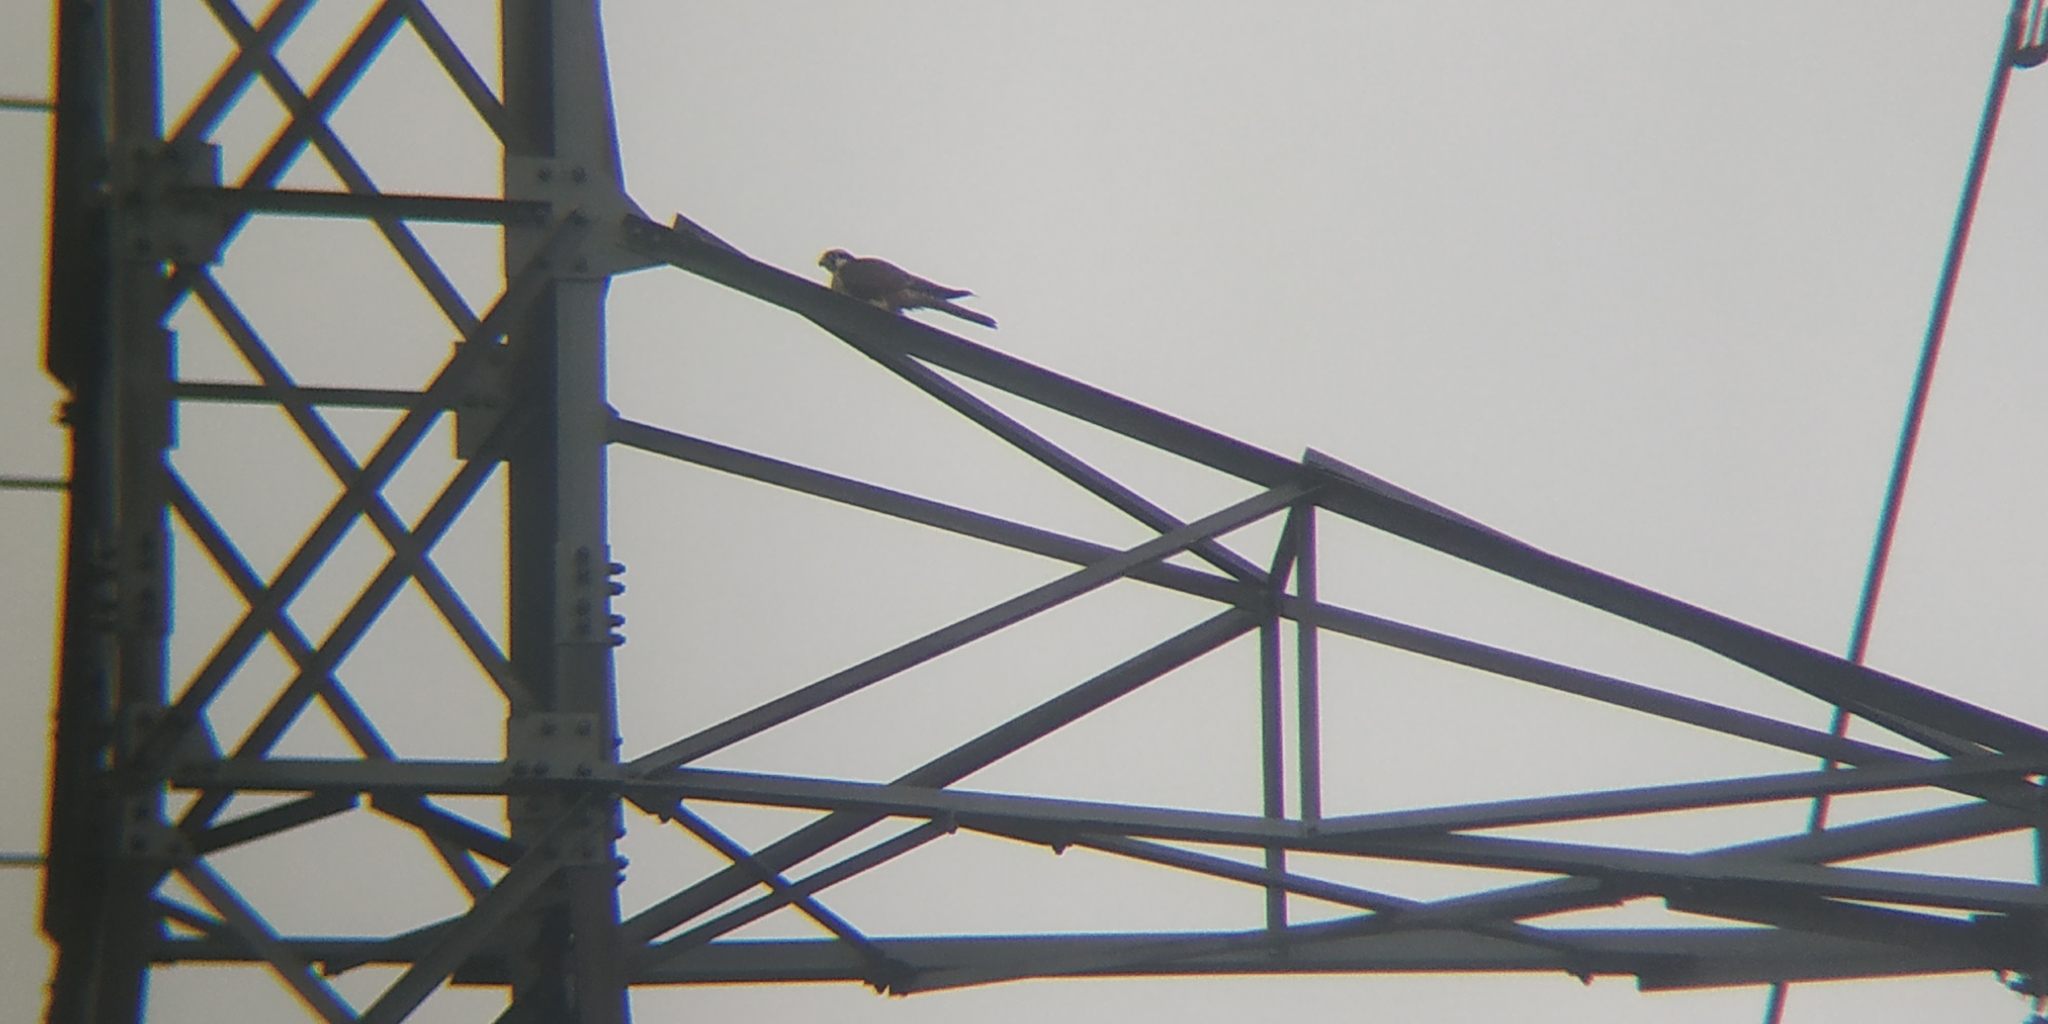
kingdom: Animalia
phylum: Chordata
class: Aves
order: Falconiformes
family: Falconidae
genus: Falco
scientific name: Falco femoralis
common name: Aplomado falcon
